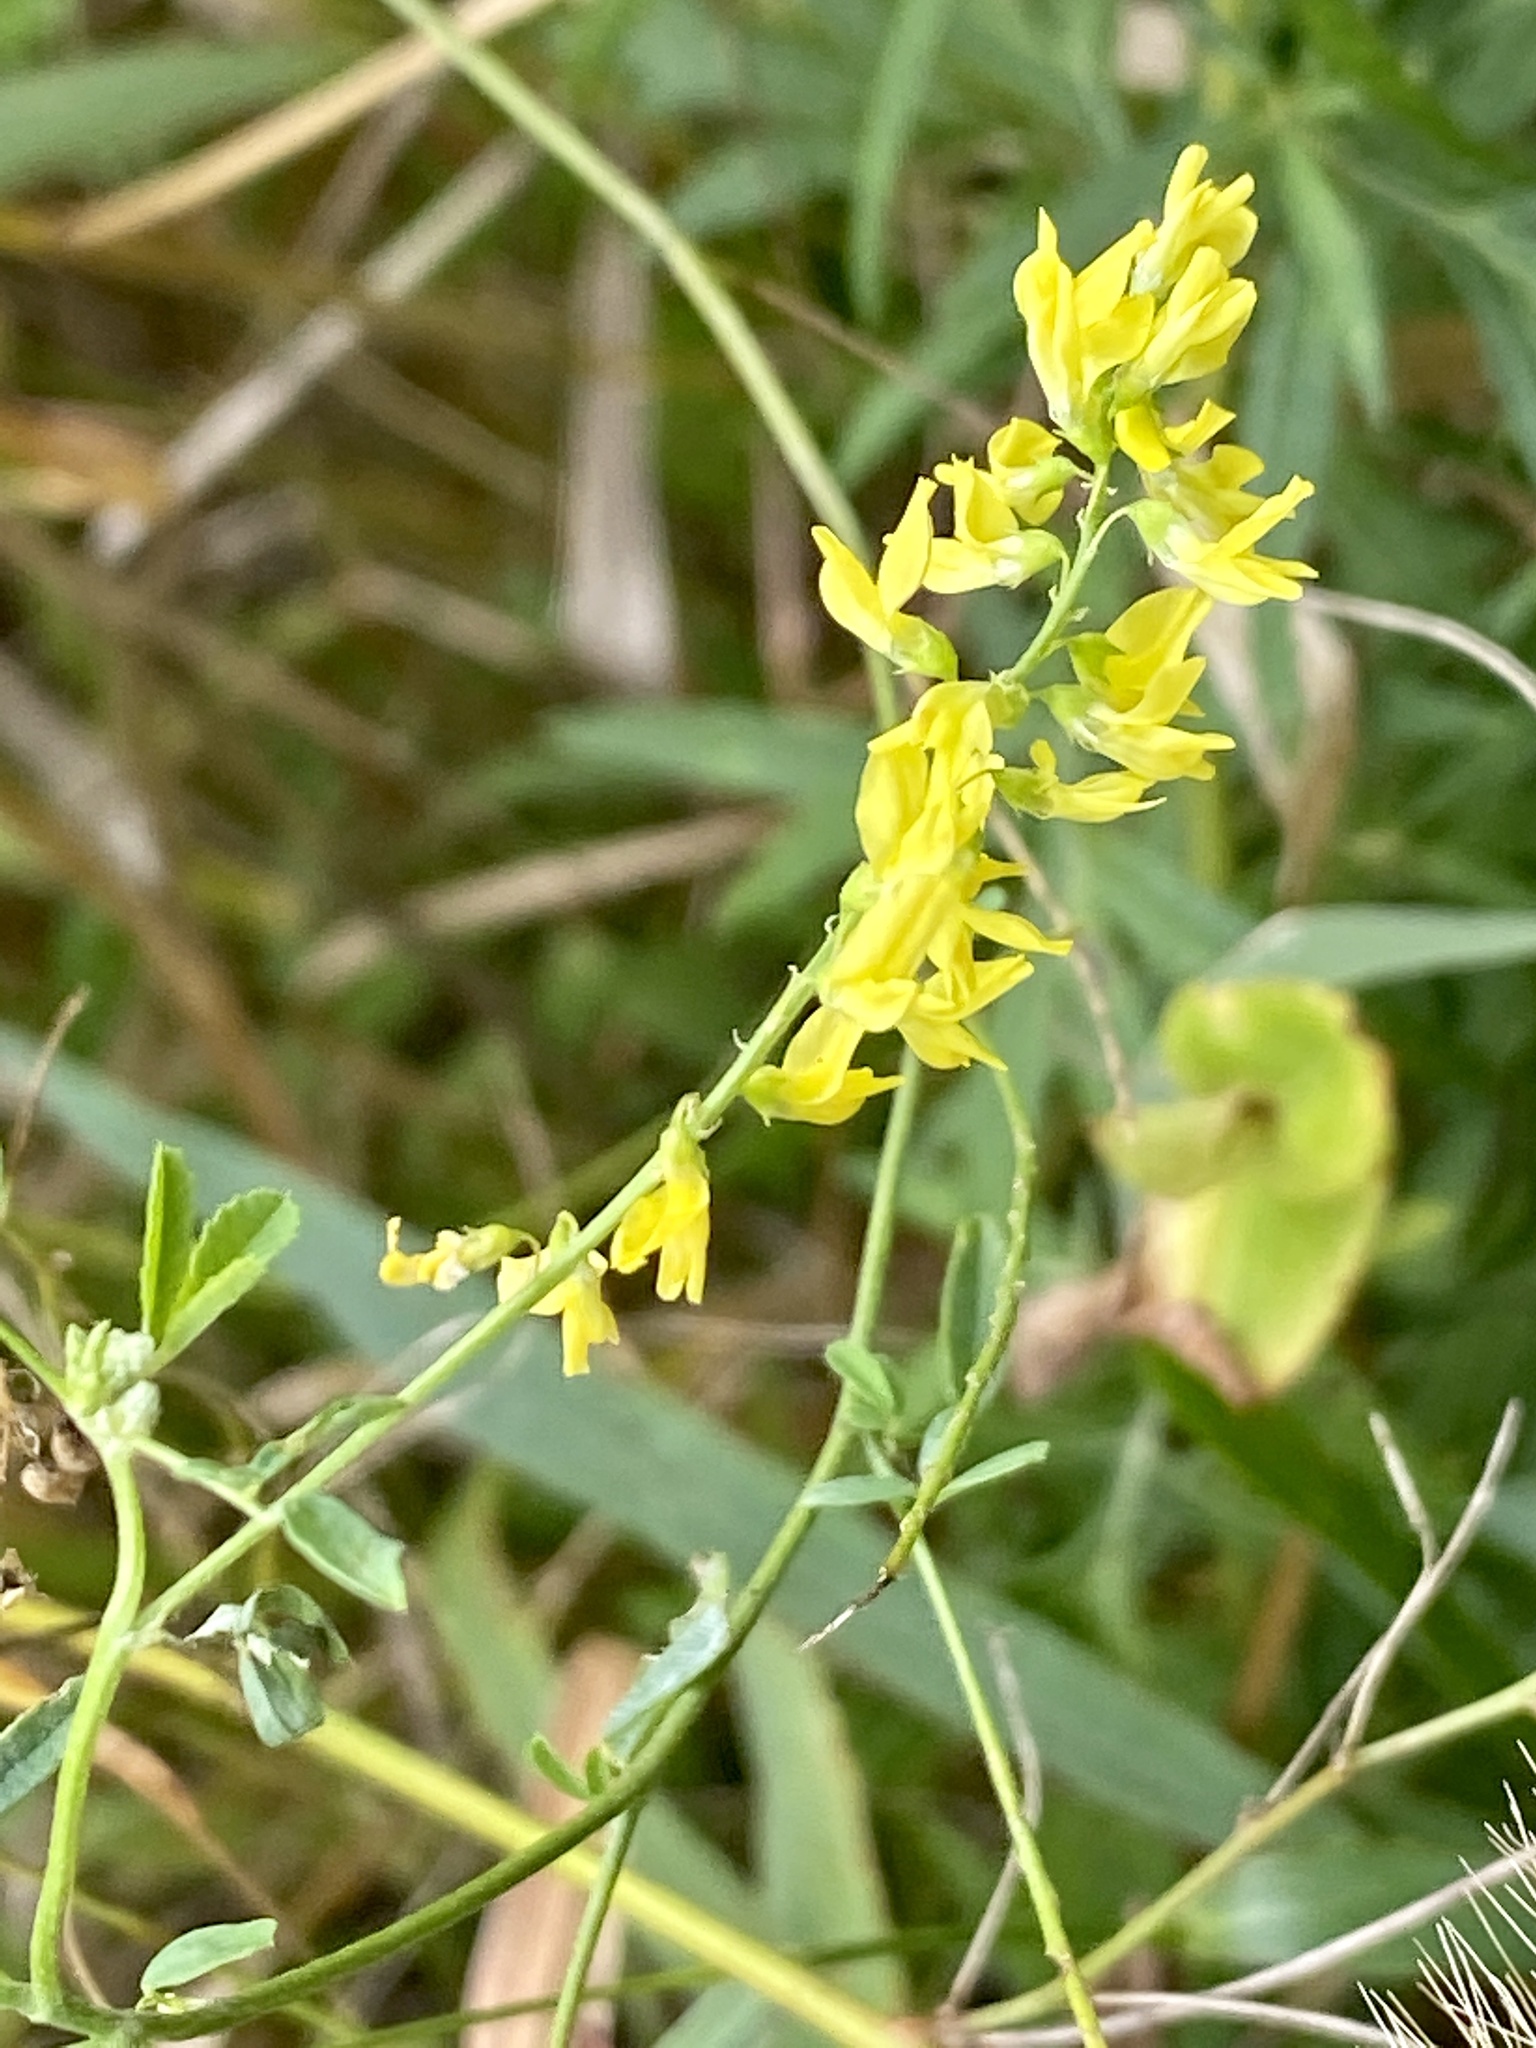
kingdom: Plantae
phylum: Tracheophyta
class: Magnoliopsida
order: Fabales
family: Fabaceae
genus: Melilotus
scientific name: Melilotus officinalis
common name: Sweetclover
